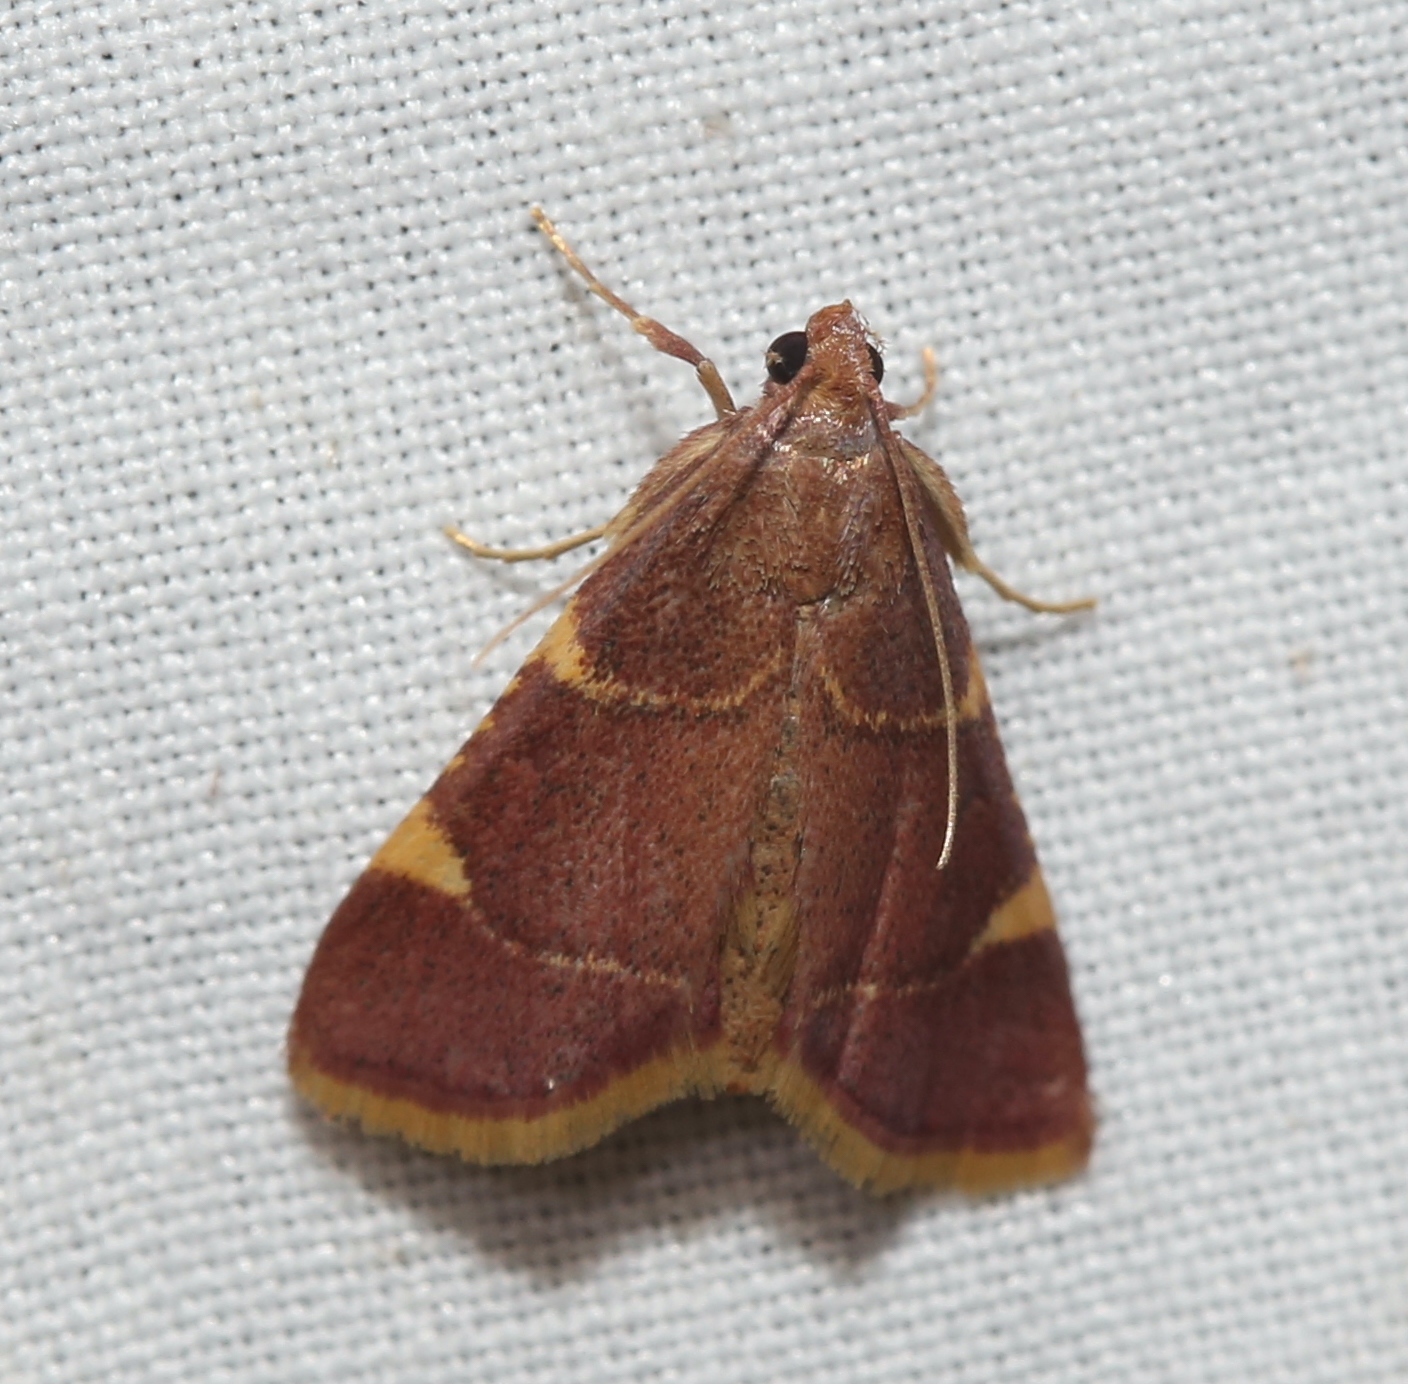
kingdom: Animalia
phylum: Arthropoda
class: Insecta
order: Lepidoptera
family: Pyralidae
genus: Hypsopygia
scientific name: Hypsopygia olinalis
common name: Yellow-fringed dolichomia moth
